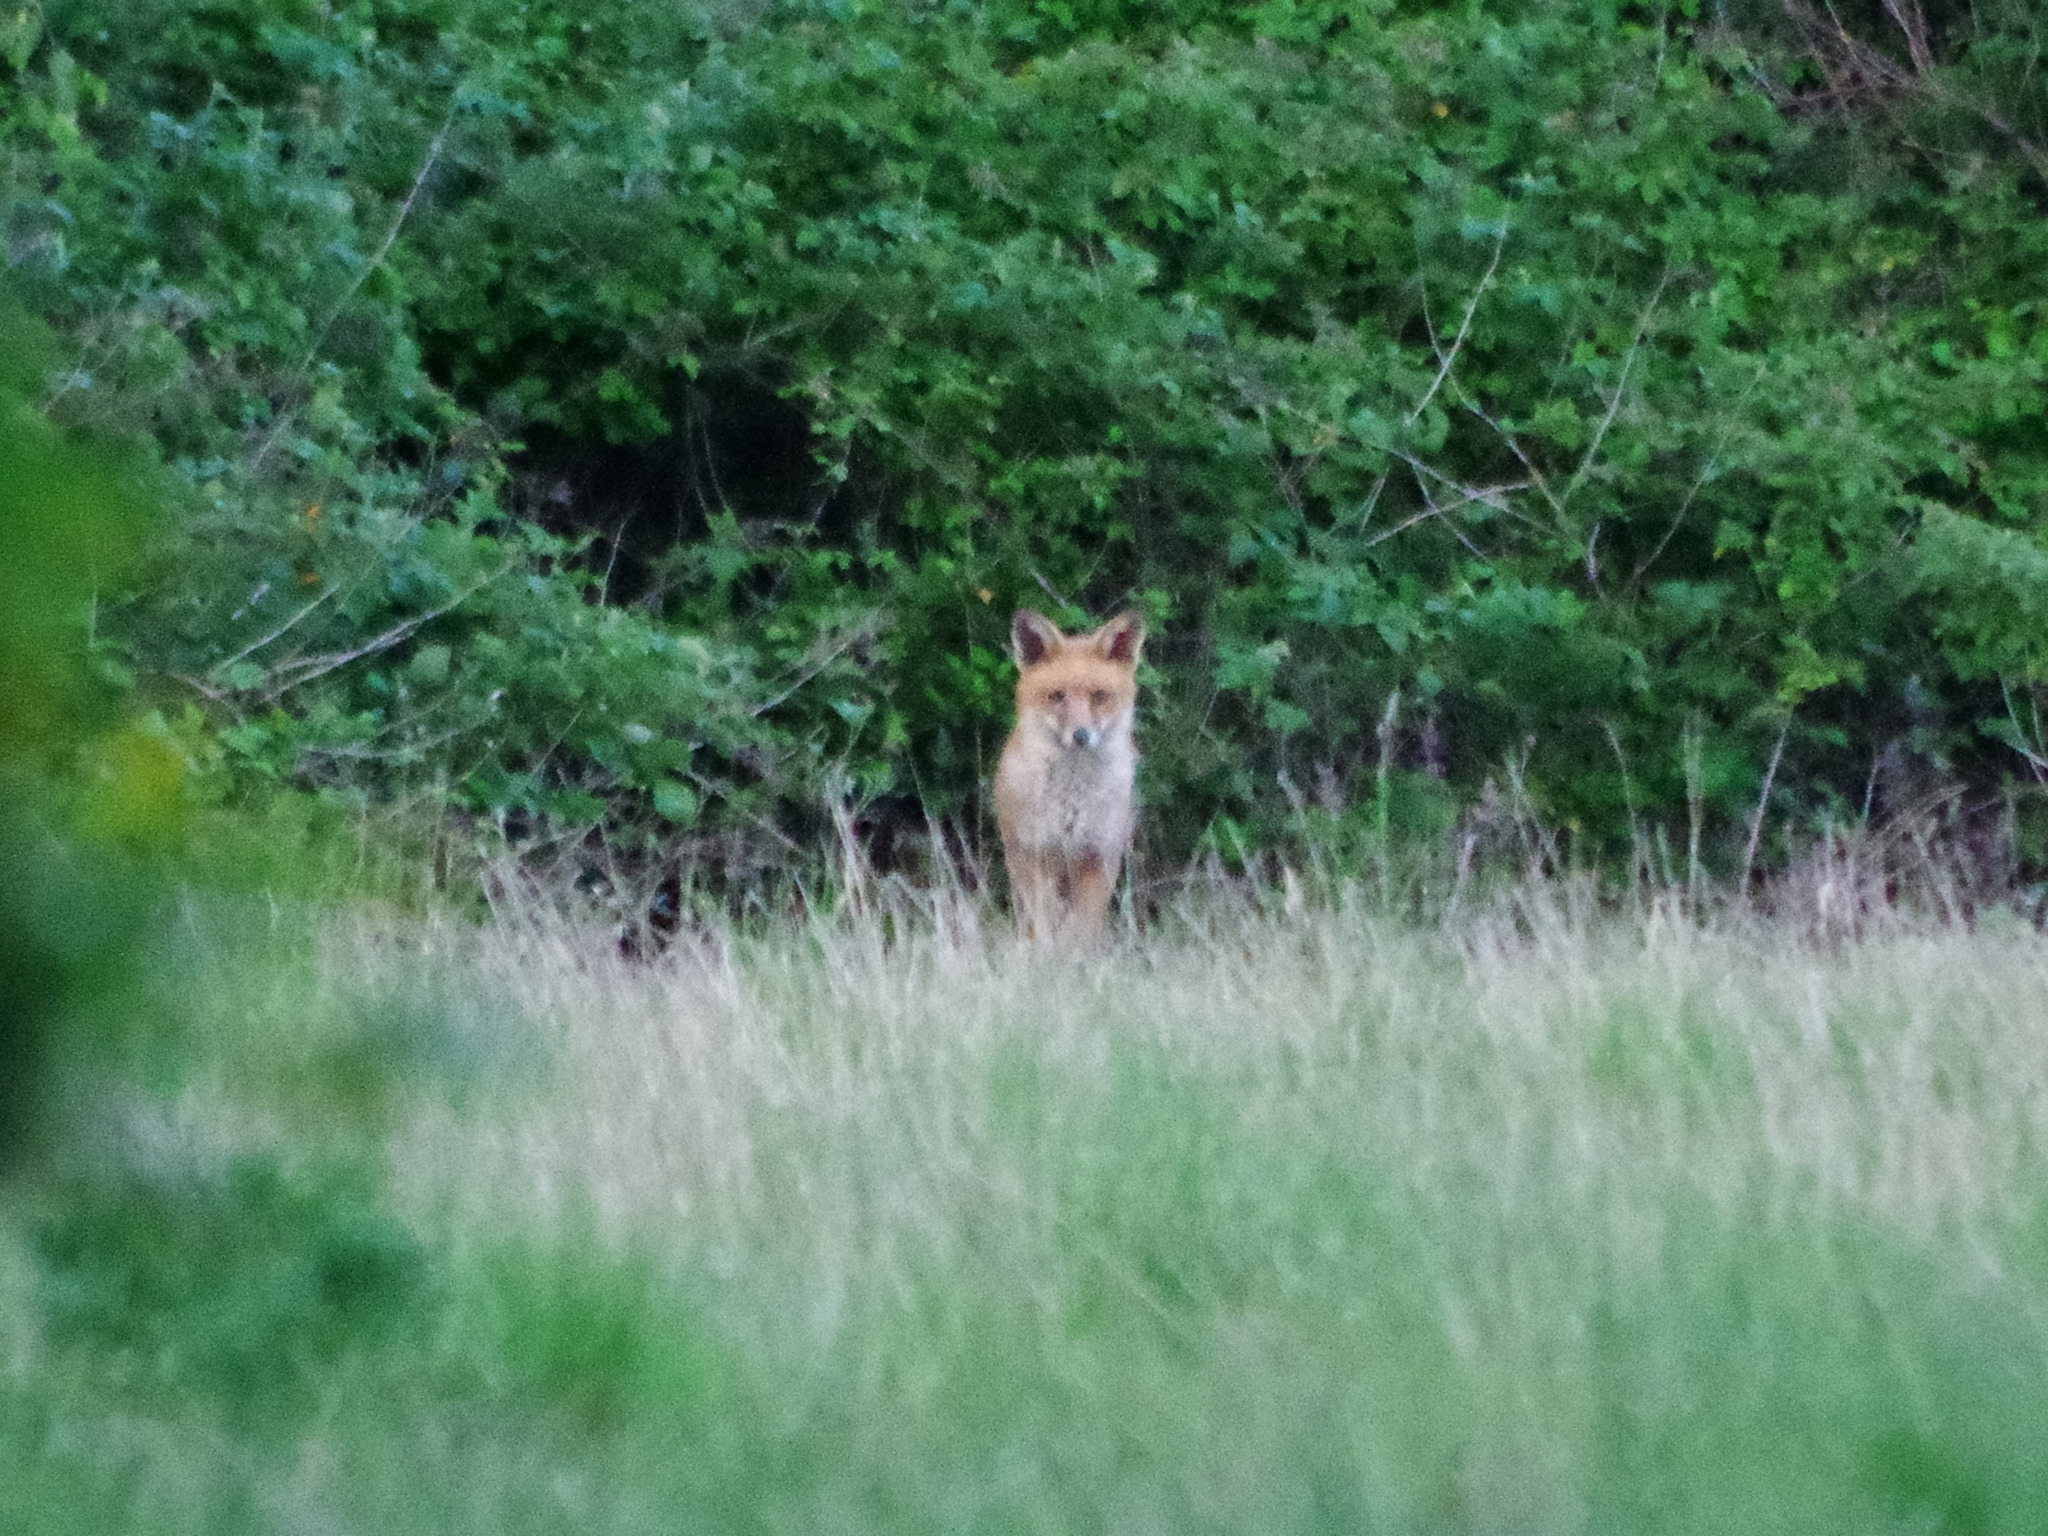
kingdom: Animalia
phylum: Chordata
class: Mammalia
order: Carnivora
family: Canidae
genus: Vulpes
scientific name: Vulpes vulpes
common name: Red fox
